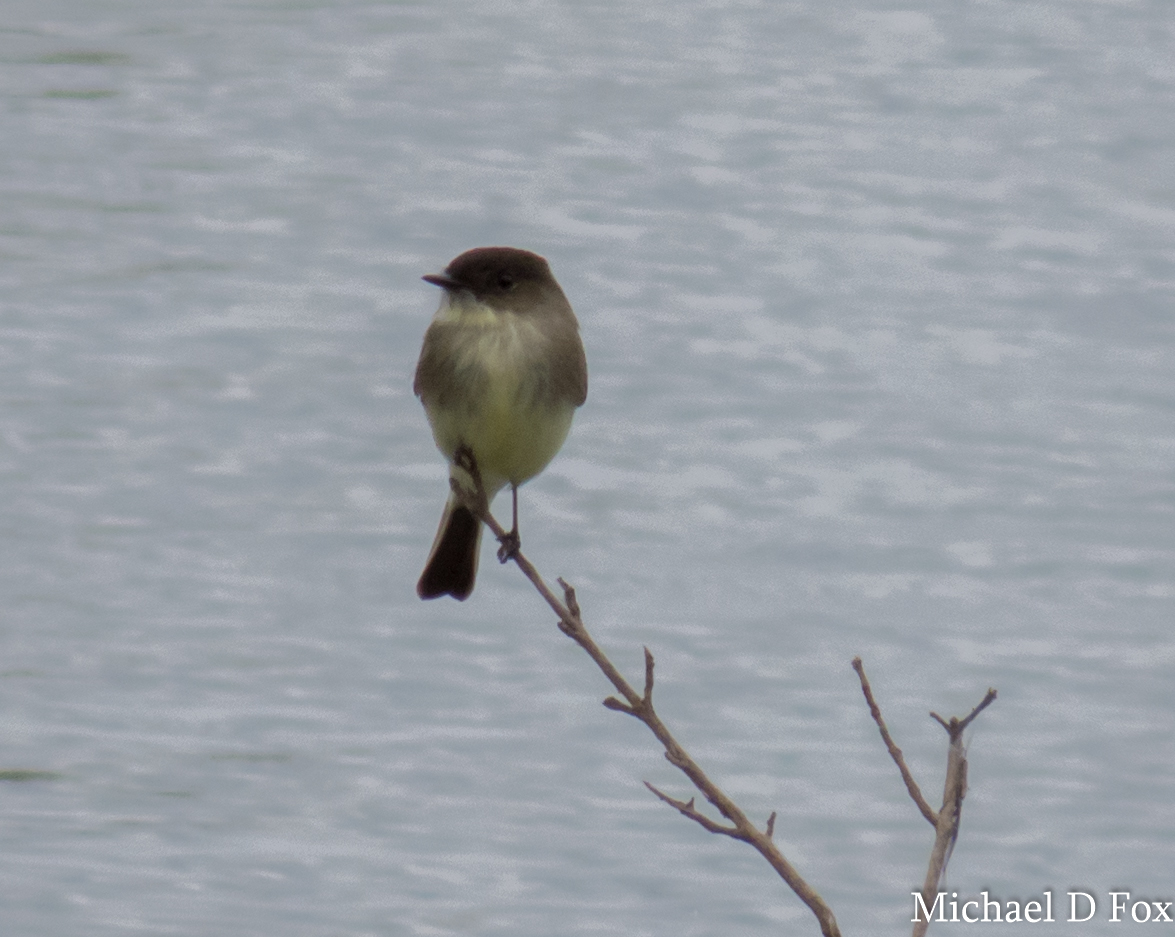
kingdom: Animalia
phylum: Chordata
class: Aves
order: Passeriformes
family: Tyrannidae
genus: Sayornis
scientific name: Sayornis phoebe
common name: Eastern phoebe
